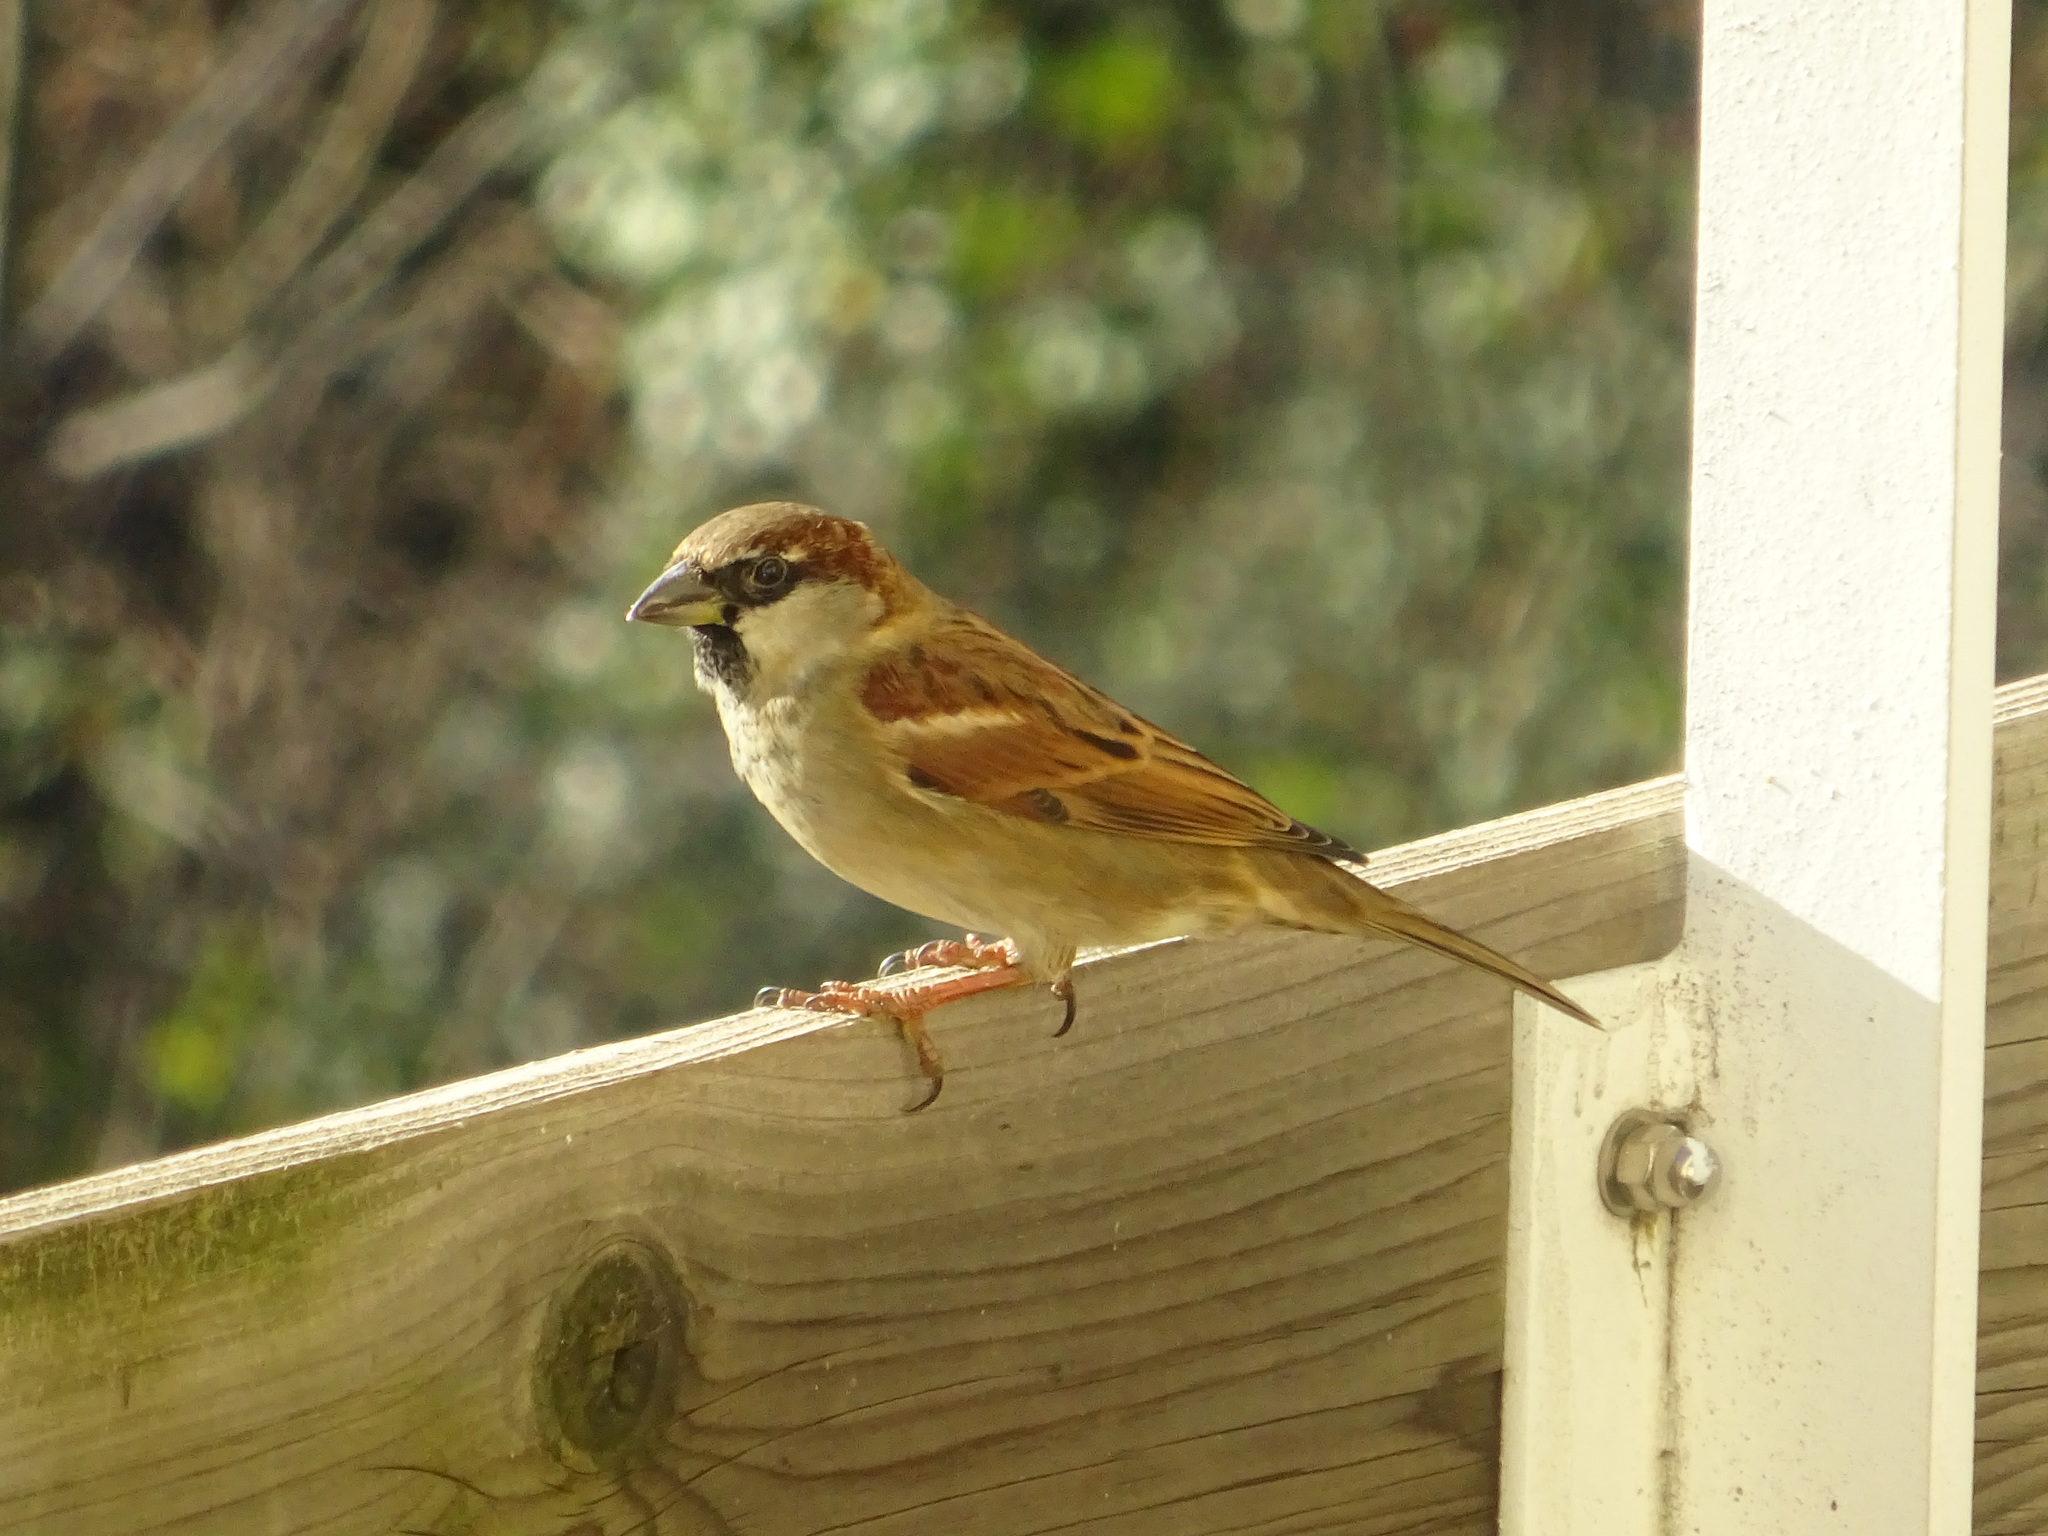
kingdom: Animalia
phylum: Chordata
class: Aves
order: Passeriformes
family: Passeridae
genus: Passer
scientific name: Passer domesticus
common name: House sparrow
